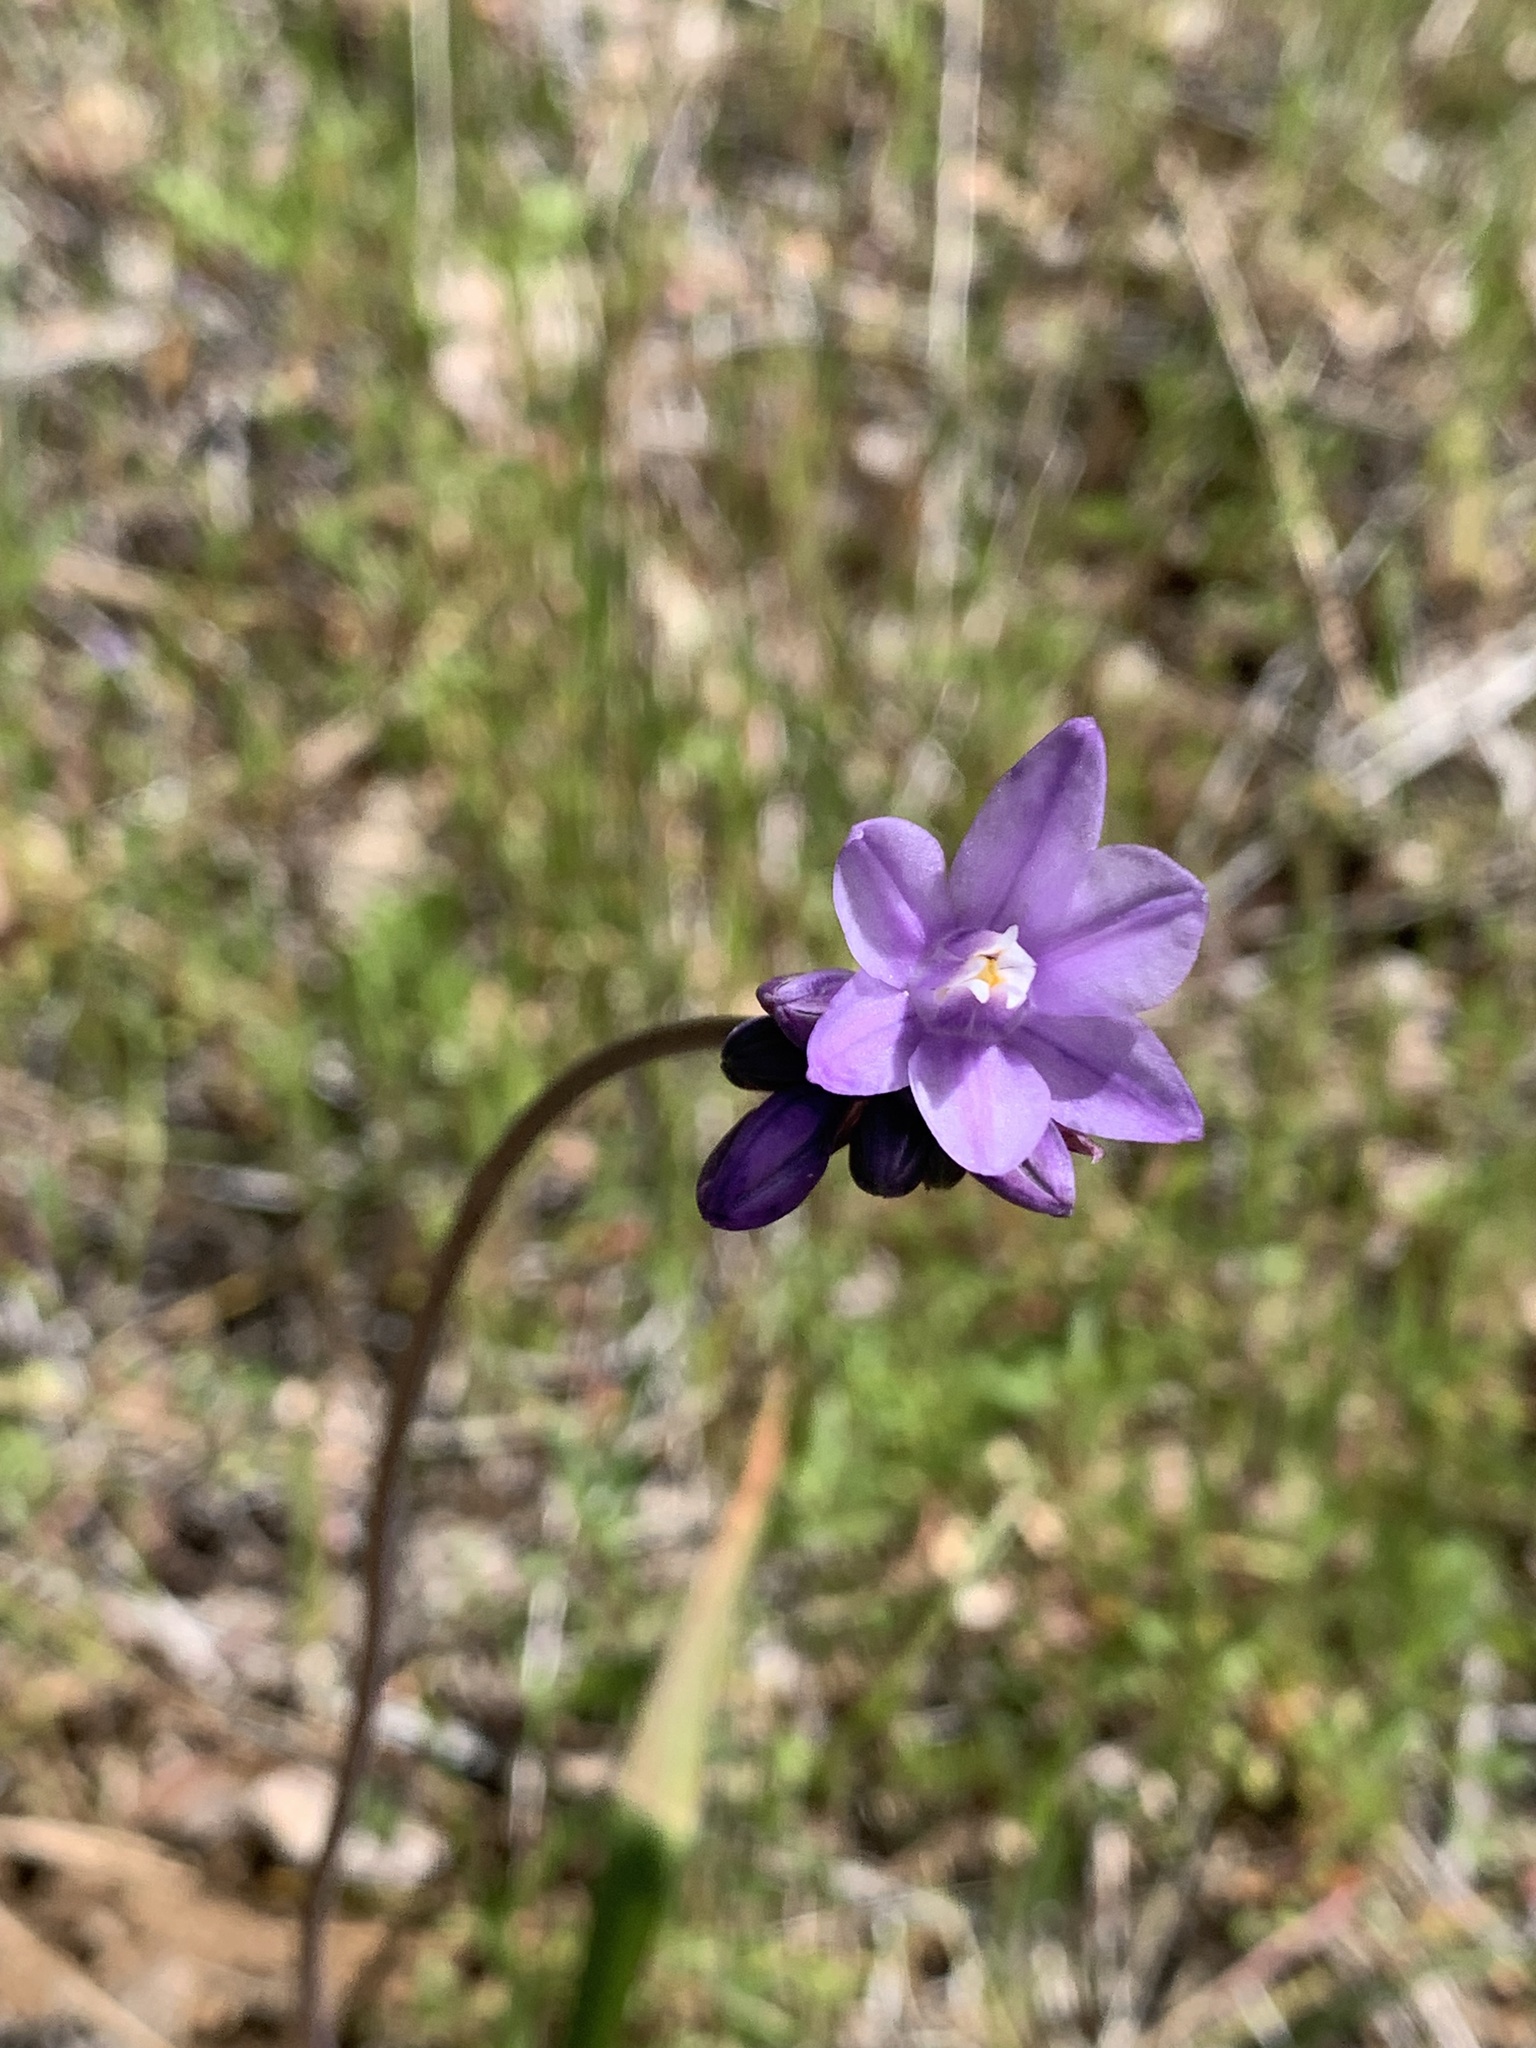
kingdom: Plantae
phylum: Tracheophyta
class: Liliopsida
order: Asparagales
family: Asparagaceae
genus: Dipterostemon
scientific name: Dipterostemon capitatus
